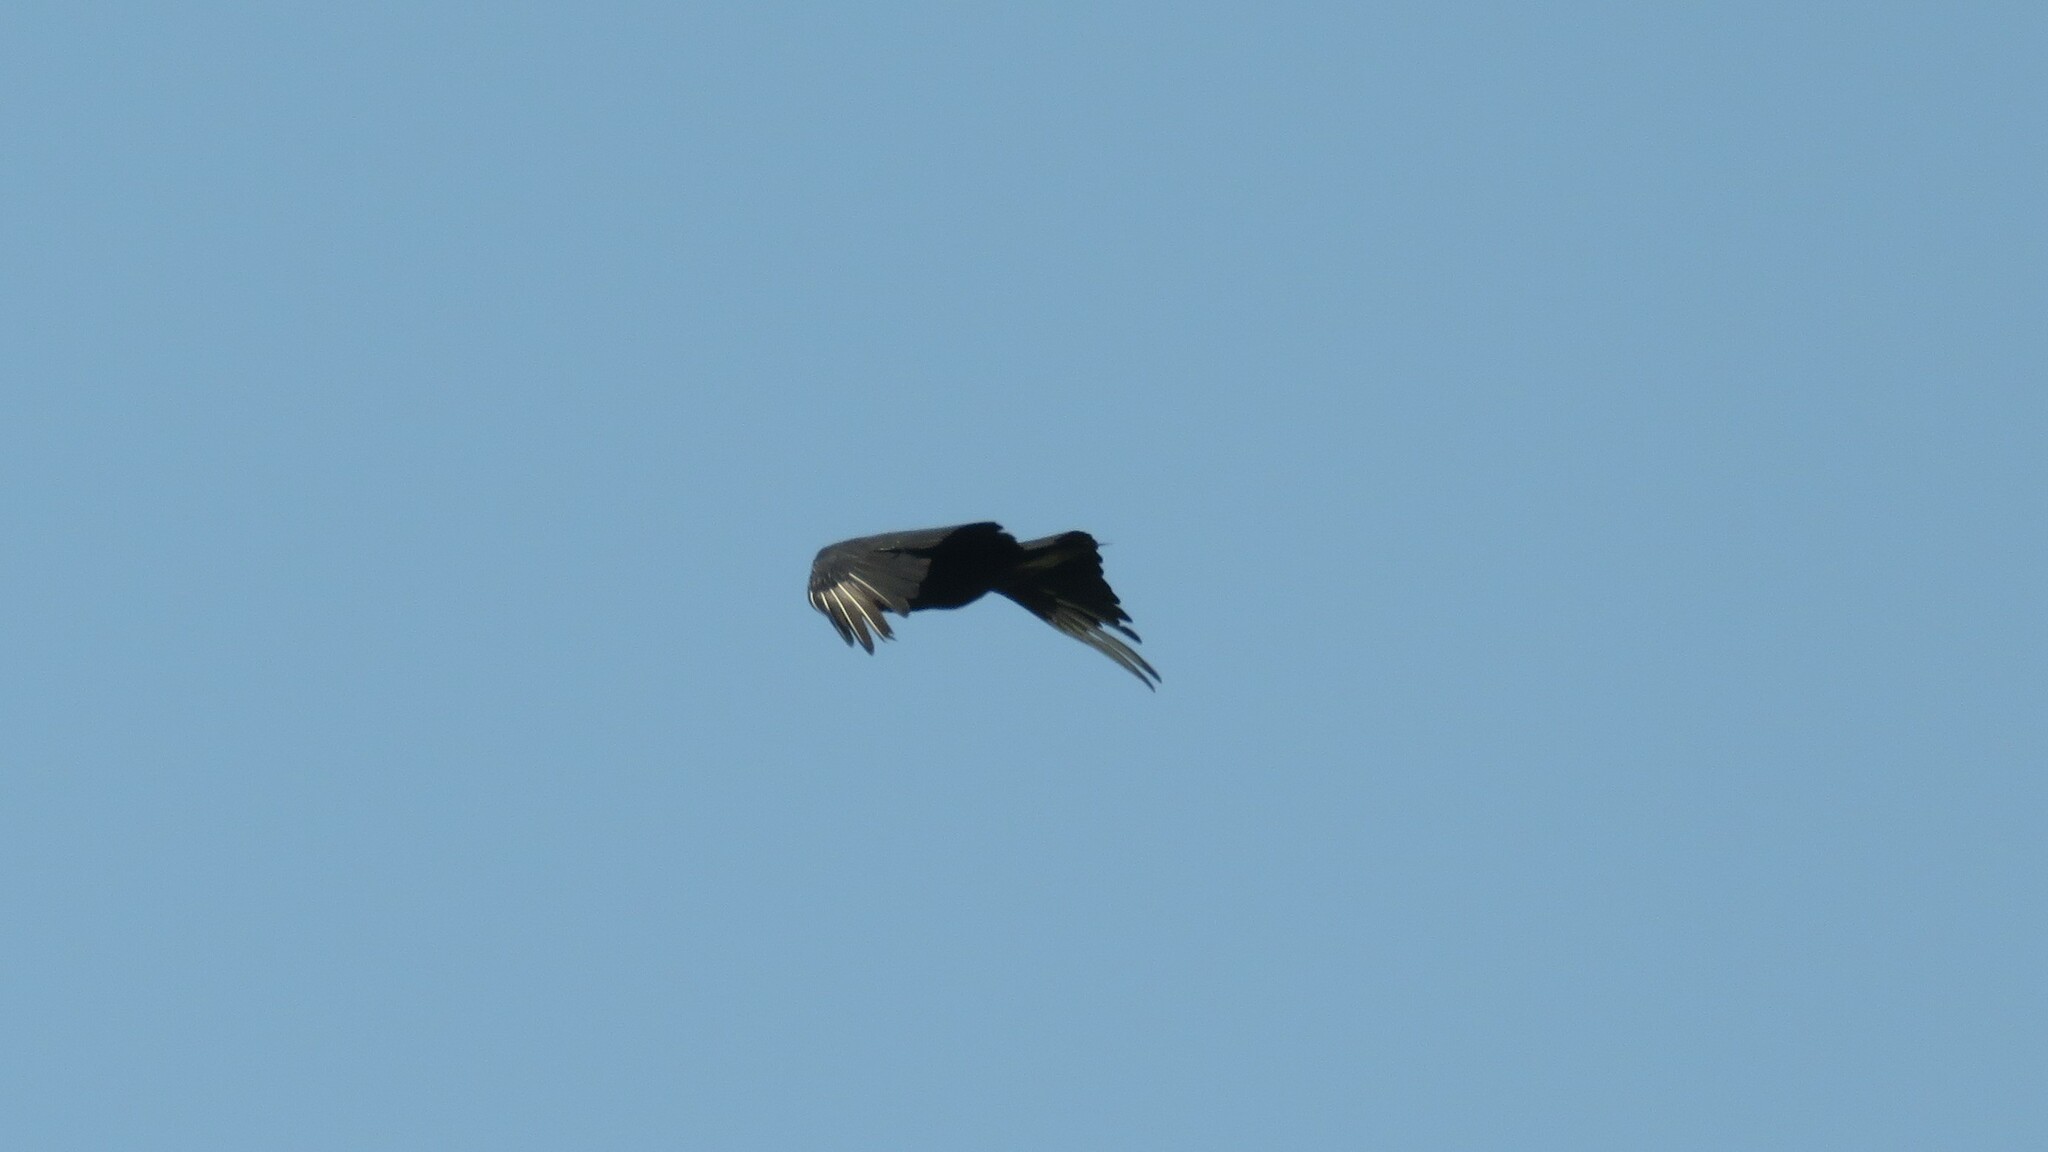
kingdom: Animalia
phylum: Chordata
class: Aves
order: Accipitriformes
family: Cathartidae
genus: Coragyps
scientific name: Coragyps atratus
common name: Black vulture
